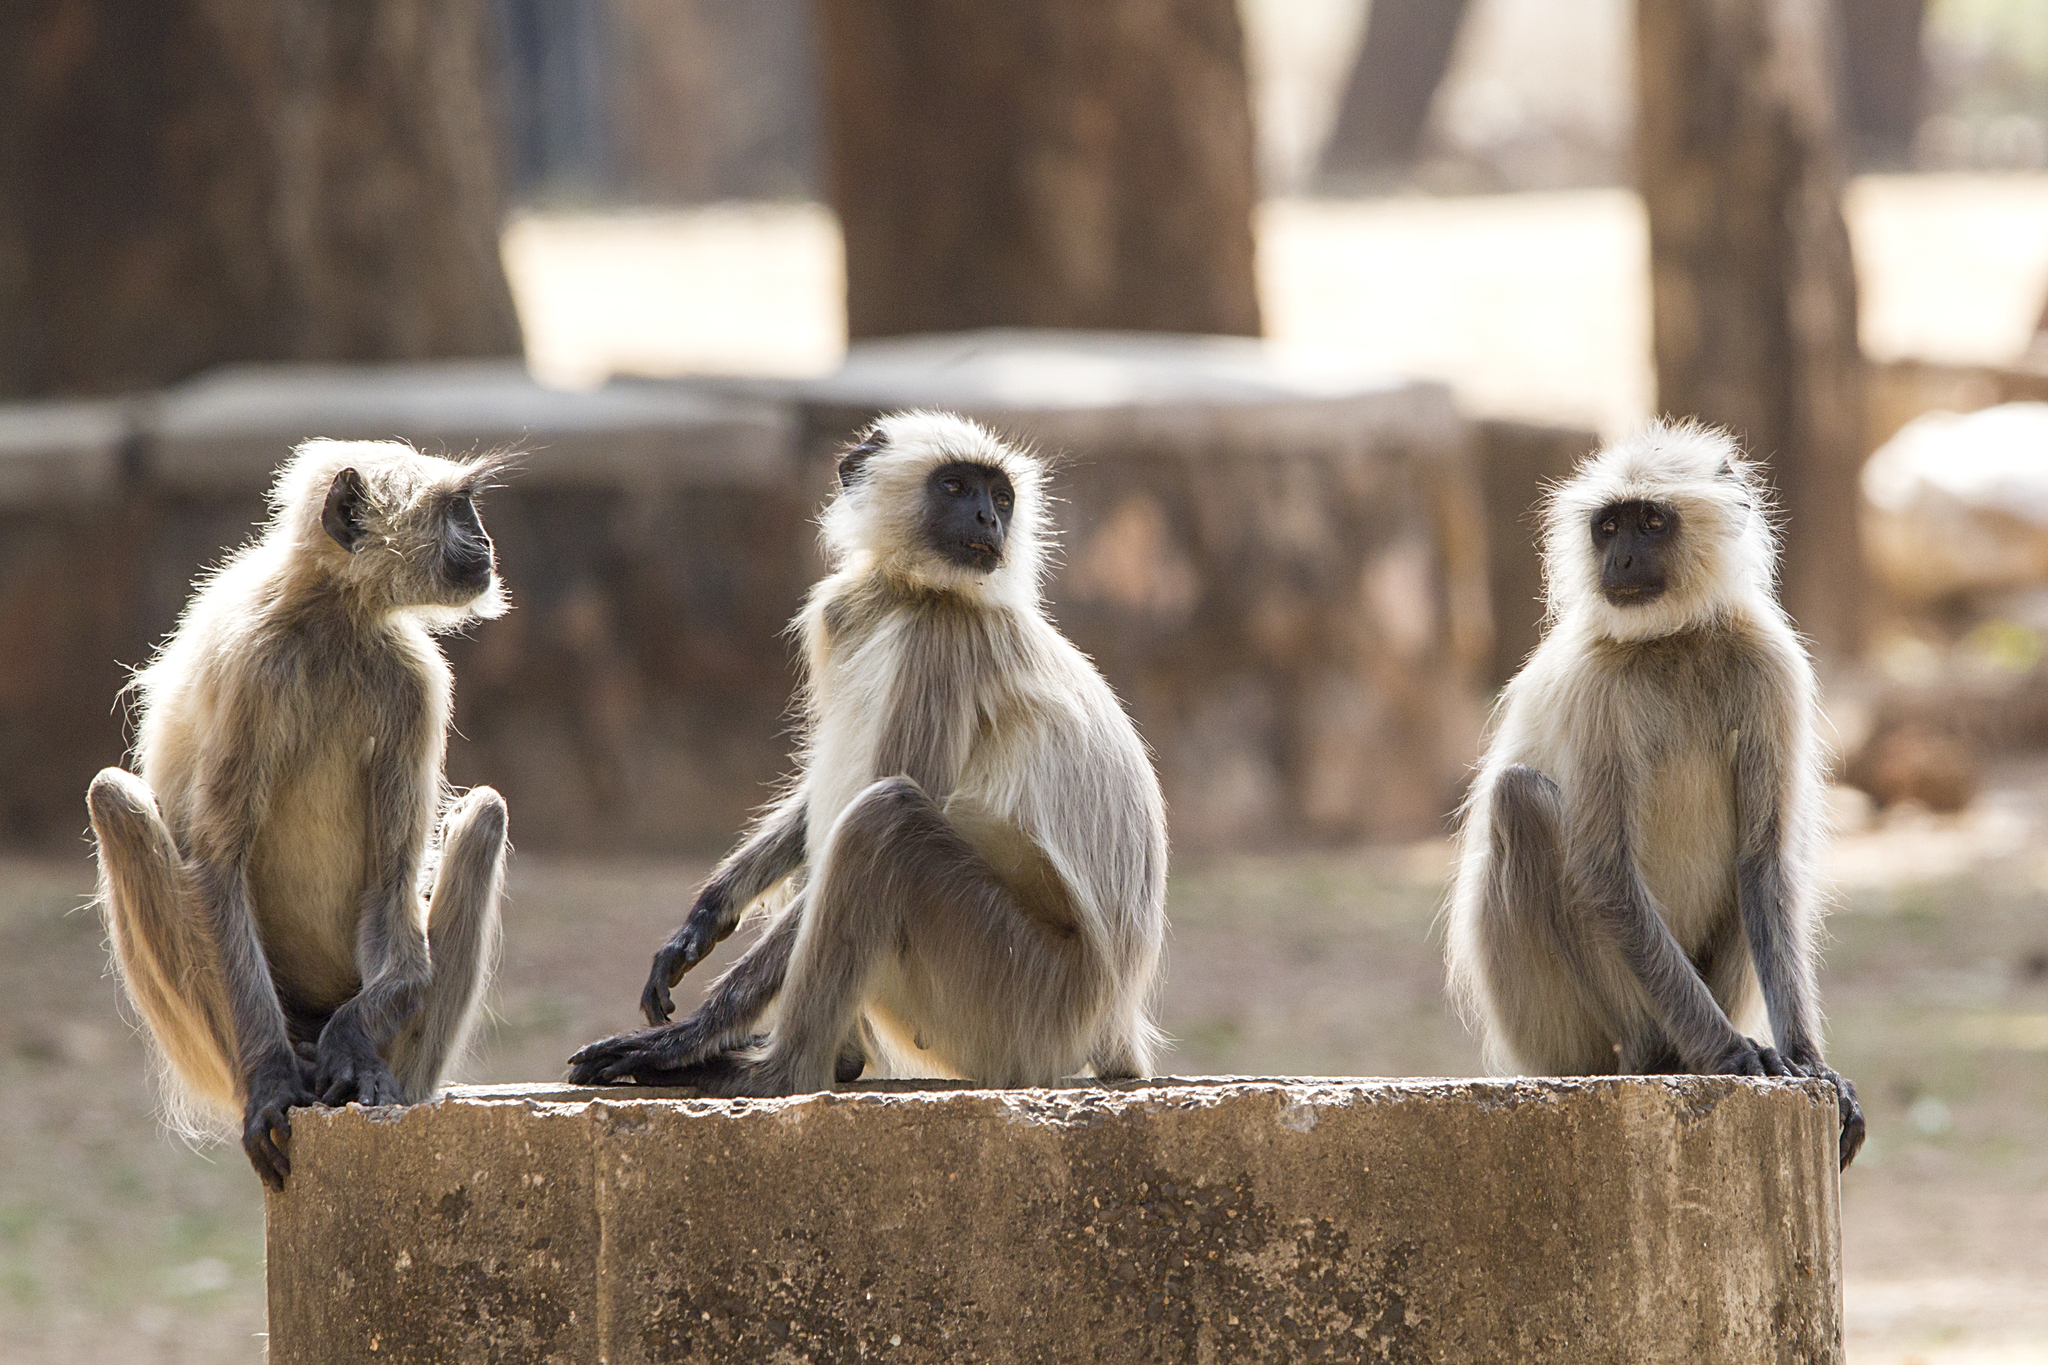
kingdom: Animalia
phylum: Chordata
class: Mammalia
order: Primates
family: Cercopithecidae
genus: Semnopithecus
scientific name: Semnopithecus entellus
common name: Northern plains gray langur
